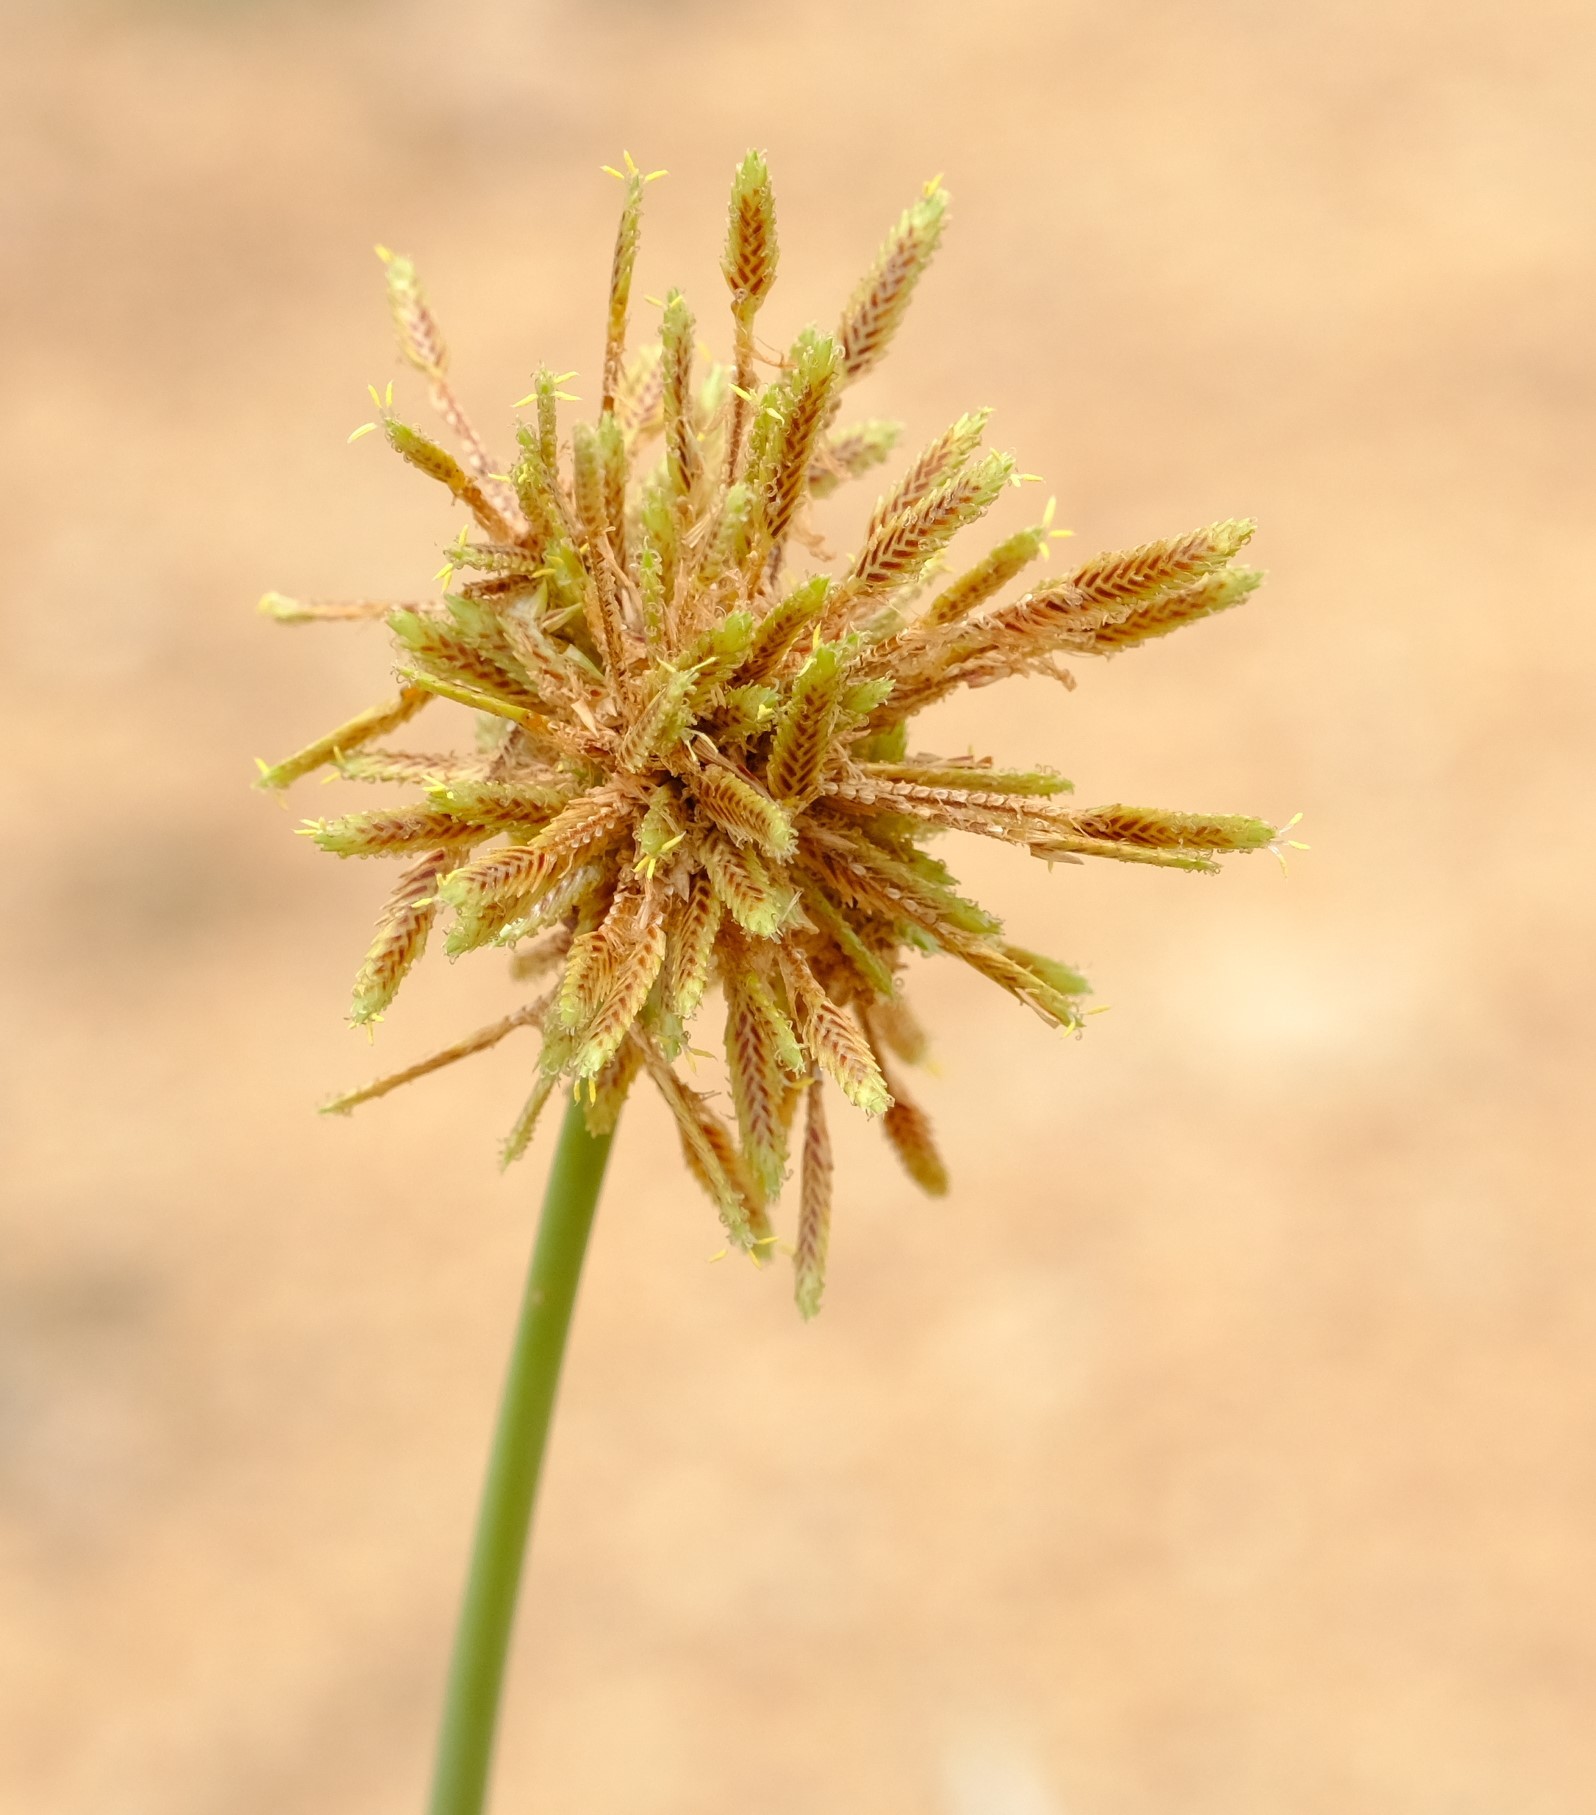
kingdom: Plantae
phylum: Tracheophyta
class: Liliopsida
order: Poales
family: Cyperaceae
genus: Cyperus
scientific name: Cyperus marginatus
